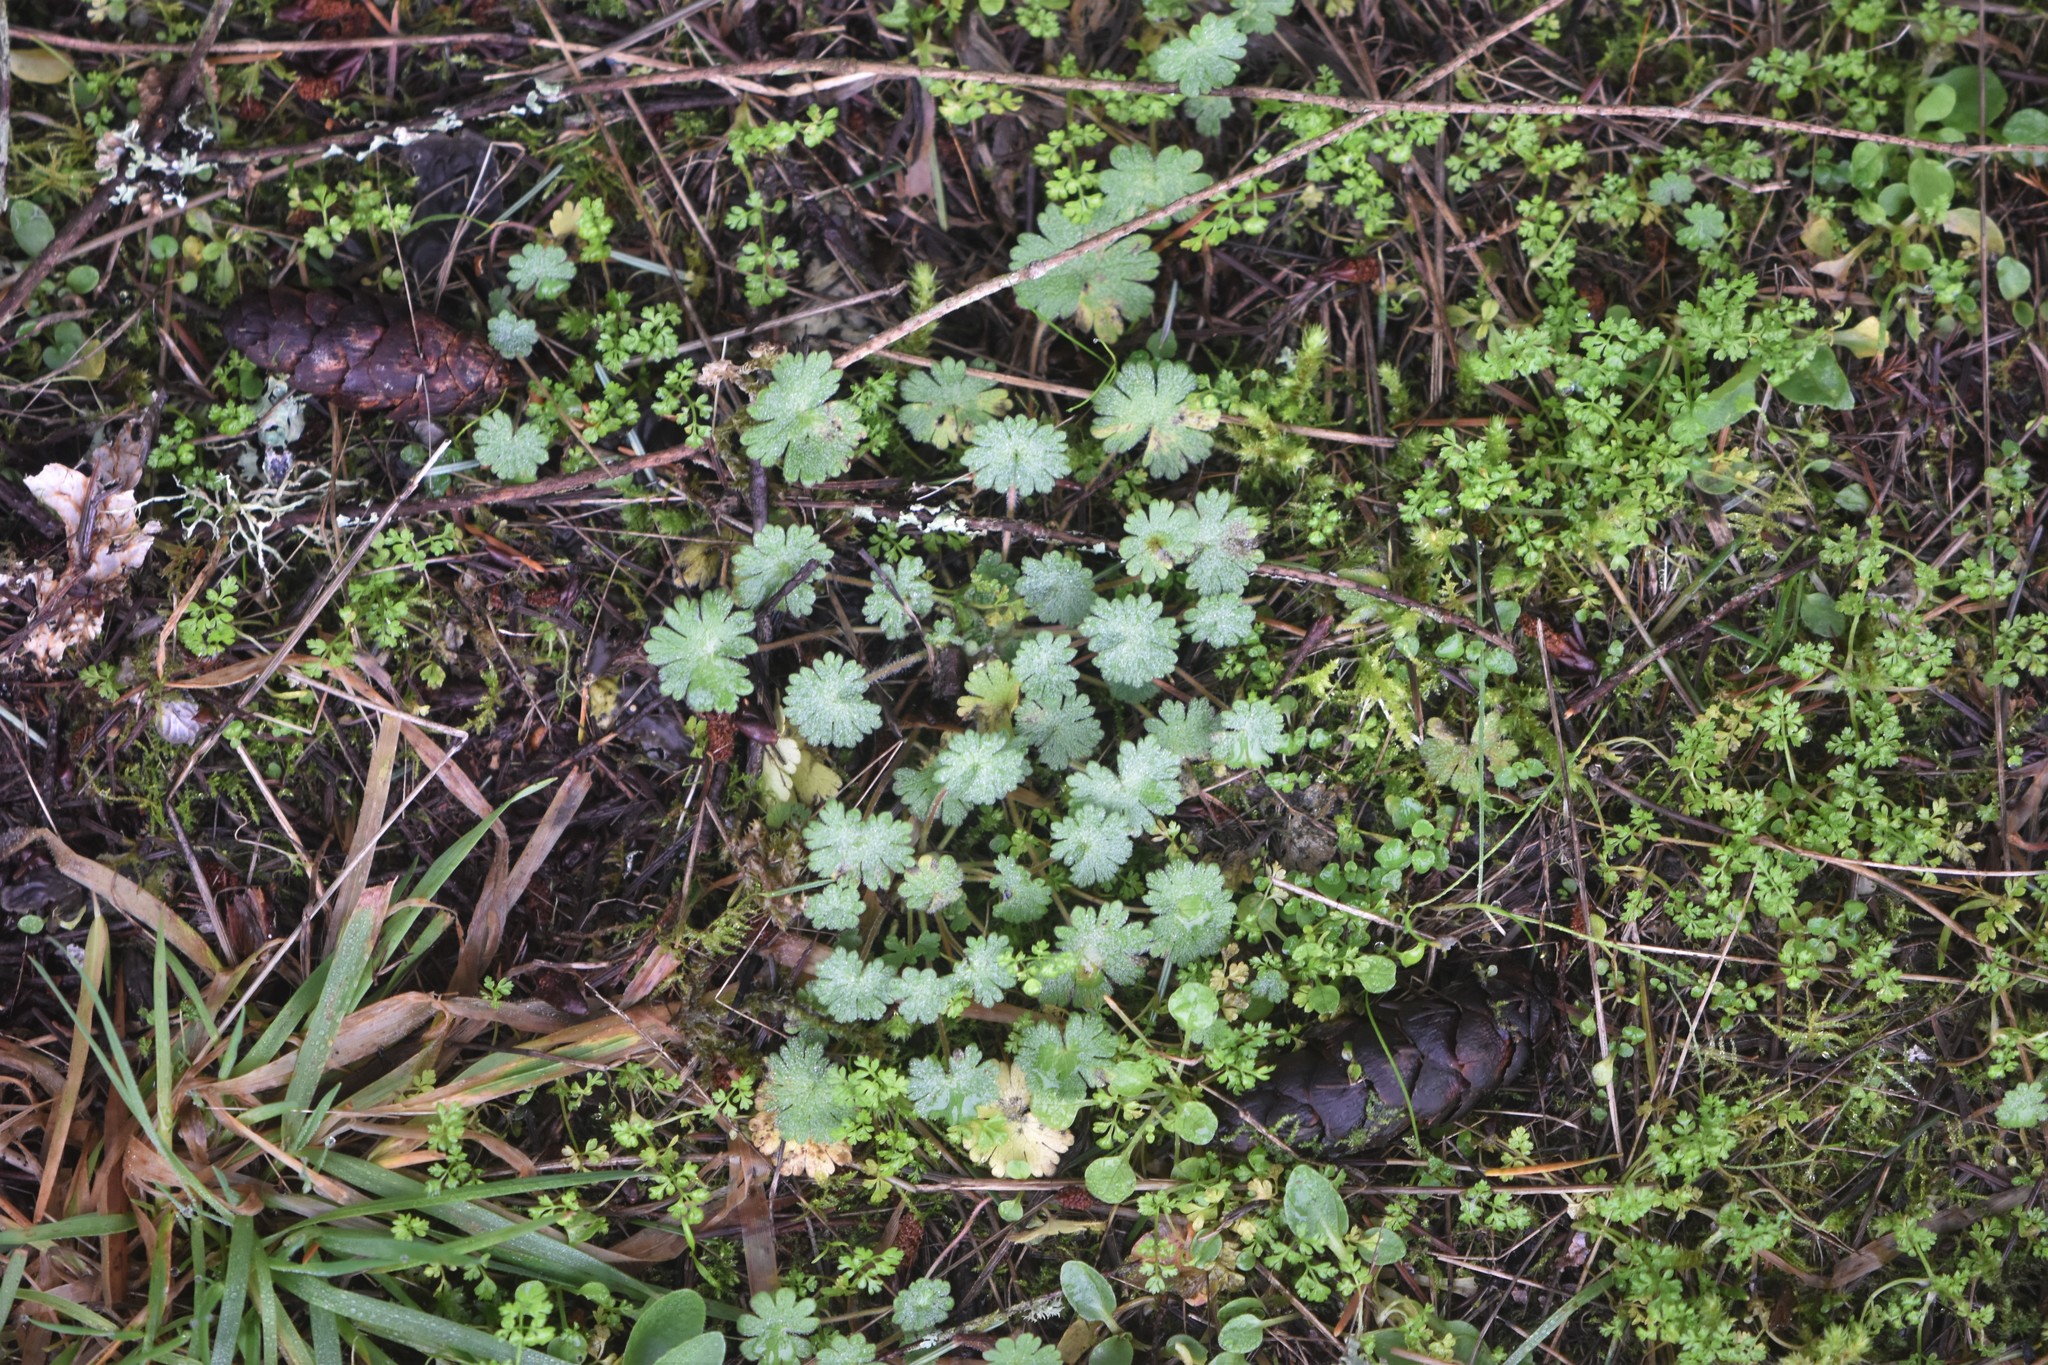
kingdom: Plantae
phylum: Tracheophyta
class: Magnoliopsida
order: Geraniales
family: Geraniaceae
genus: Geranium
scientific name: Geranium molle
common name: Dove's-foot crane's-bill
